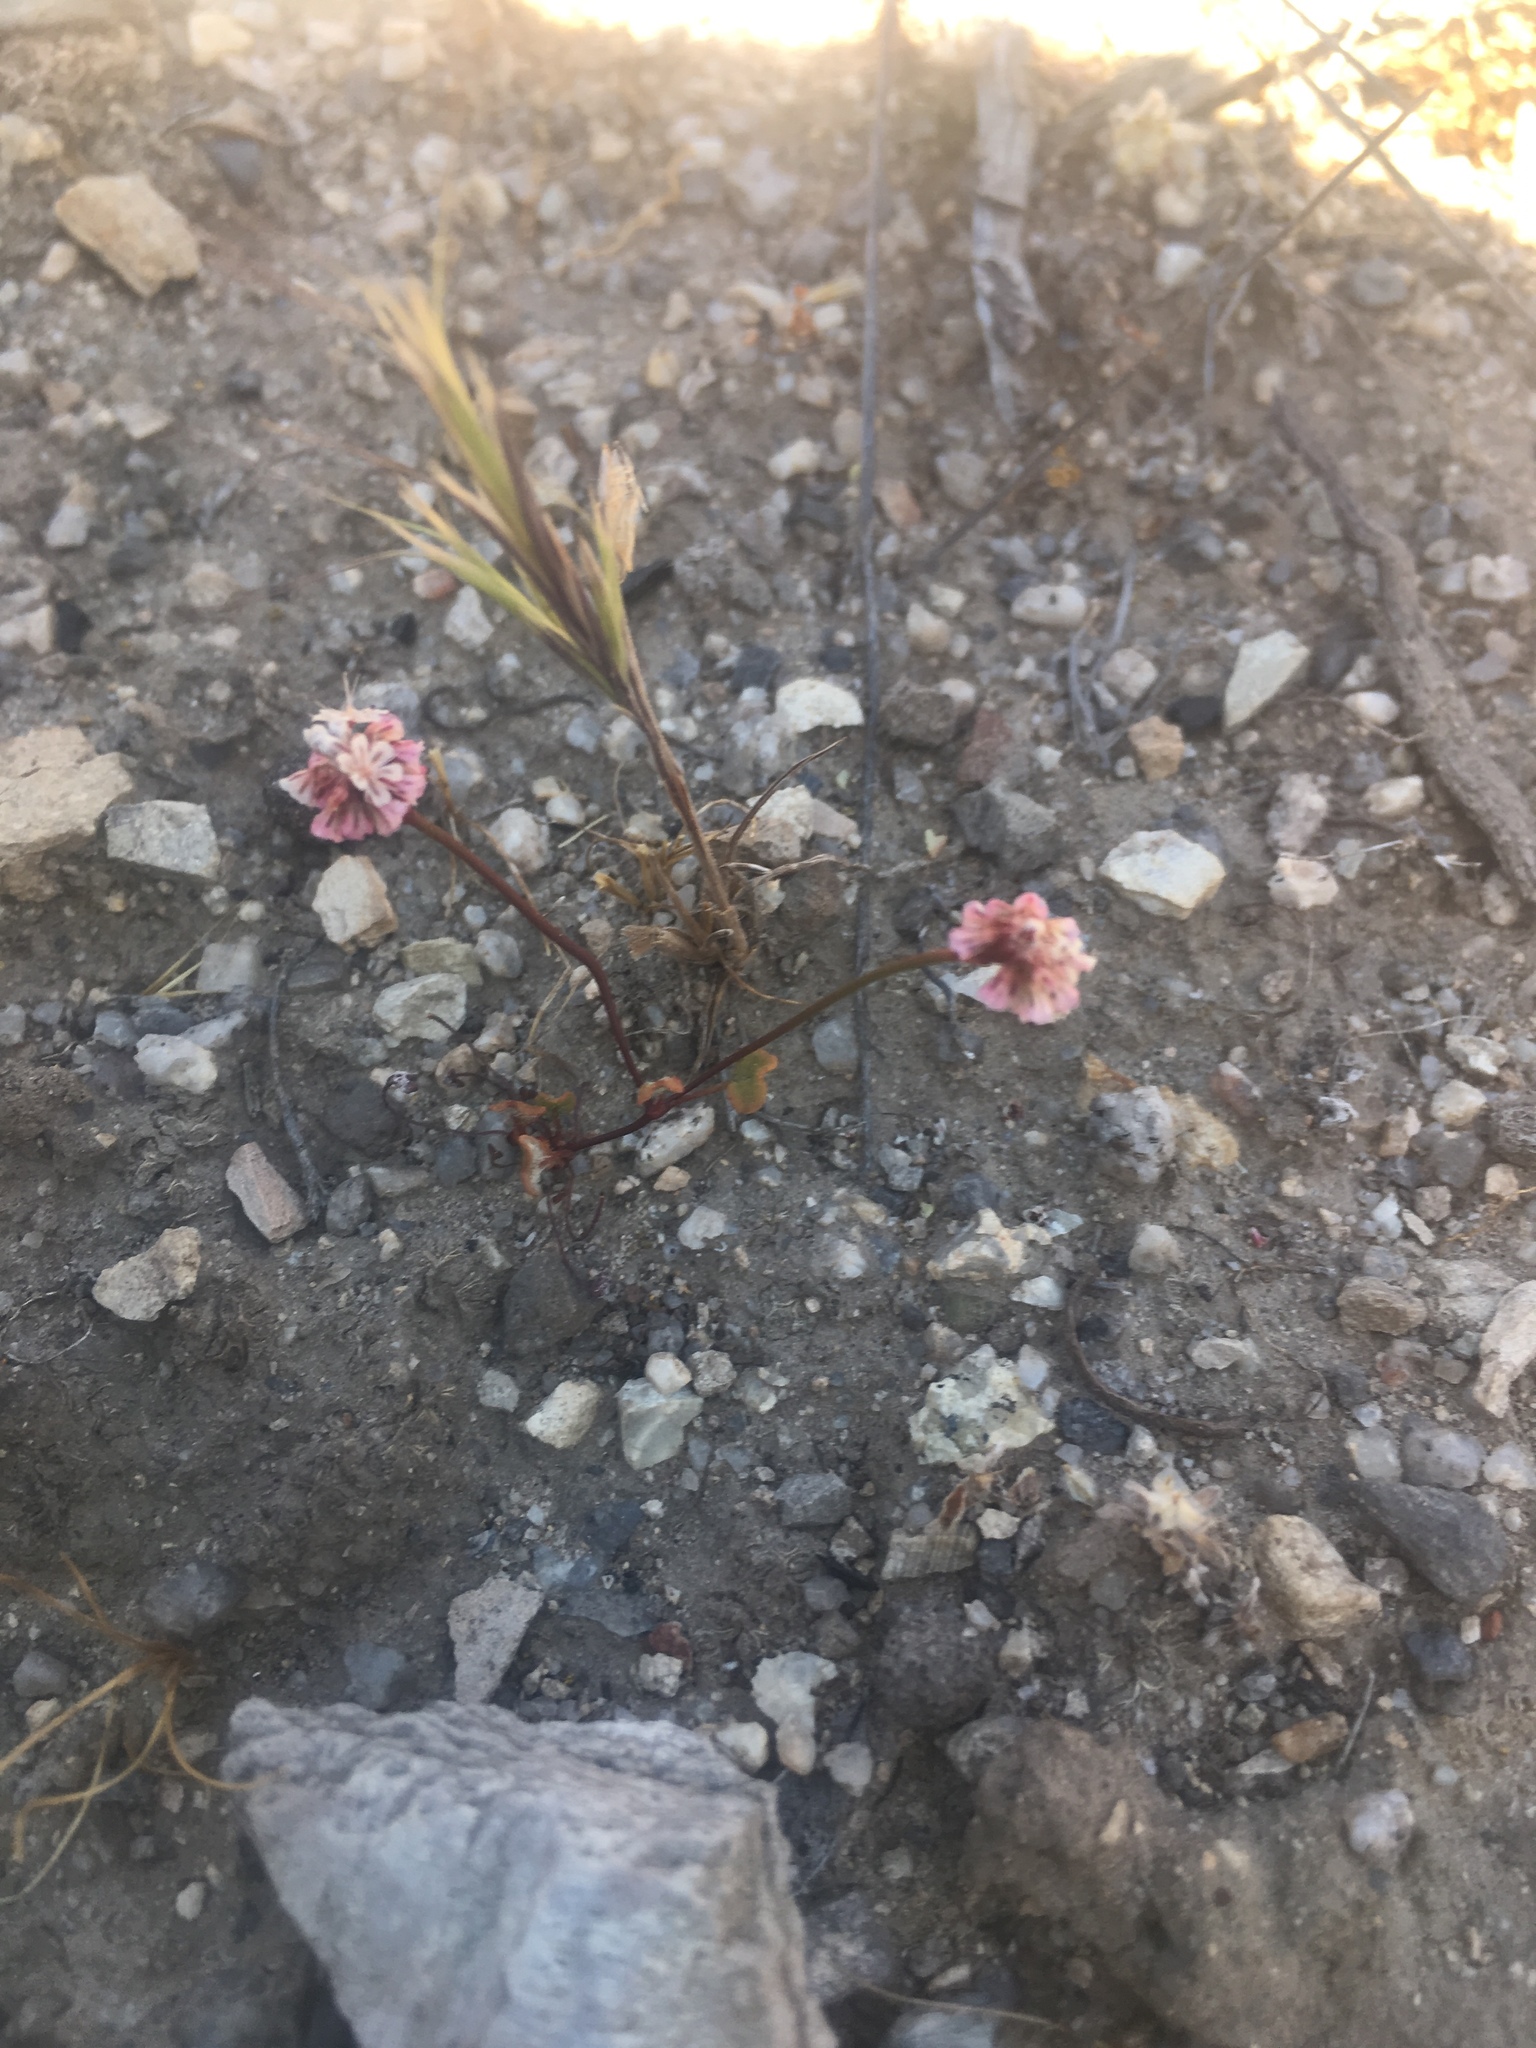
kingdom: Plantae
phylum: Tracheophyta
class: Magnoliopsida
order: Caryophyllales
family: Polygonaceae
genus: Eriogonum
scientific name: Eriogonum nortonii
